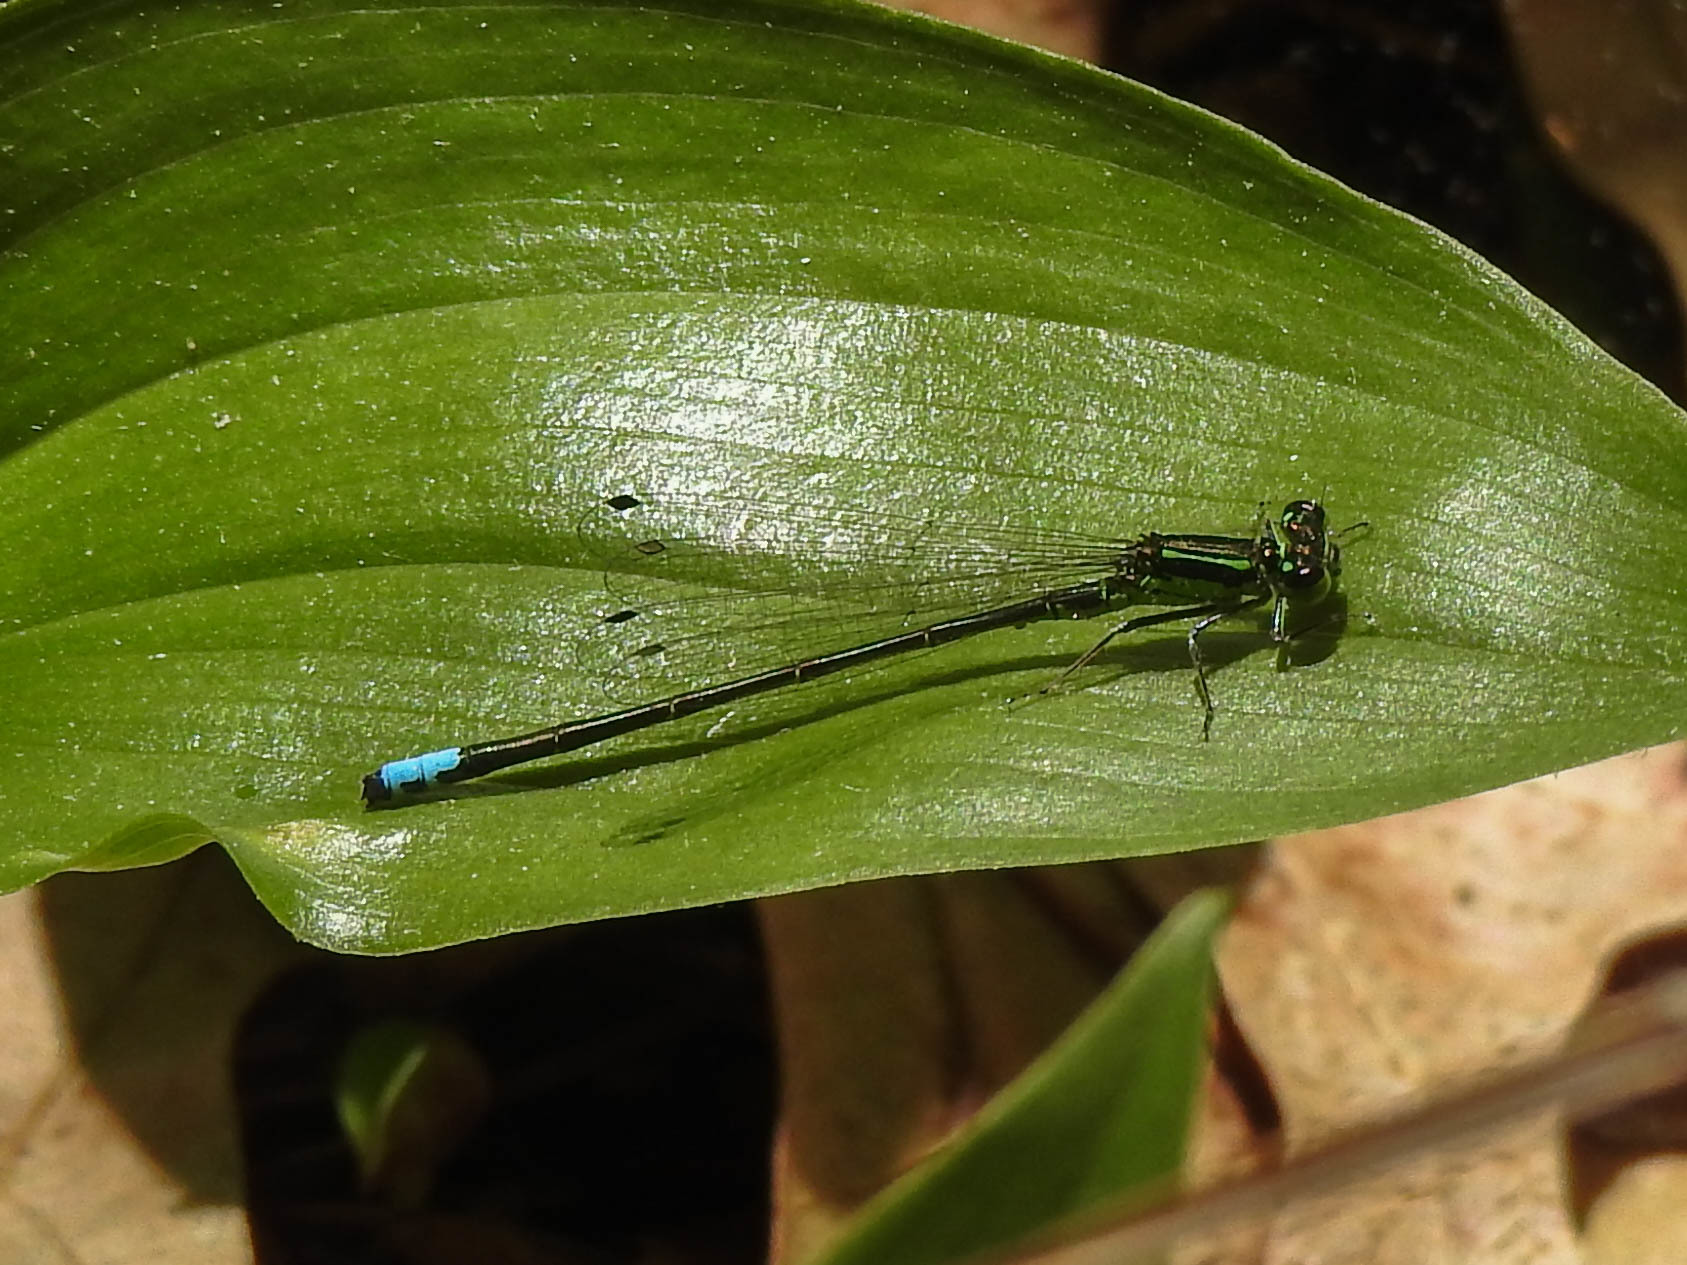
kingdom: Animalia
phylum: Arthropoda
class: Insecta
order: Odonata
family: Coenagrionidae
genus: Ischnura
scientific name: Ischnura verticalis
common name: Eastern forktail
